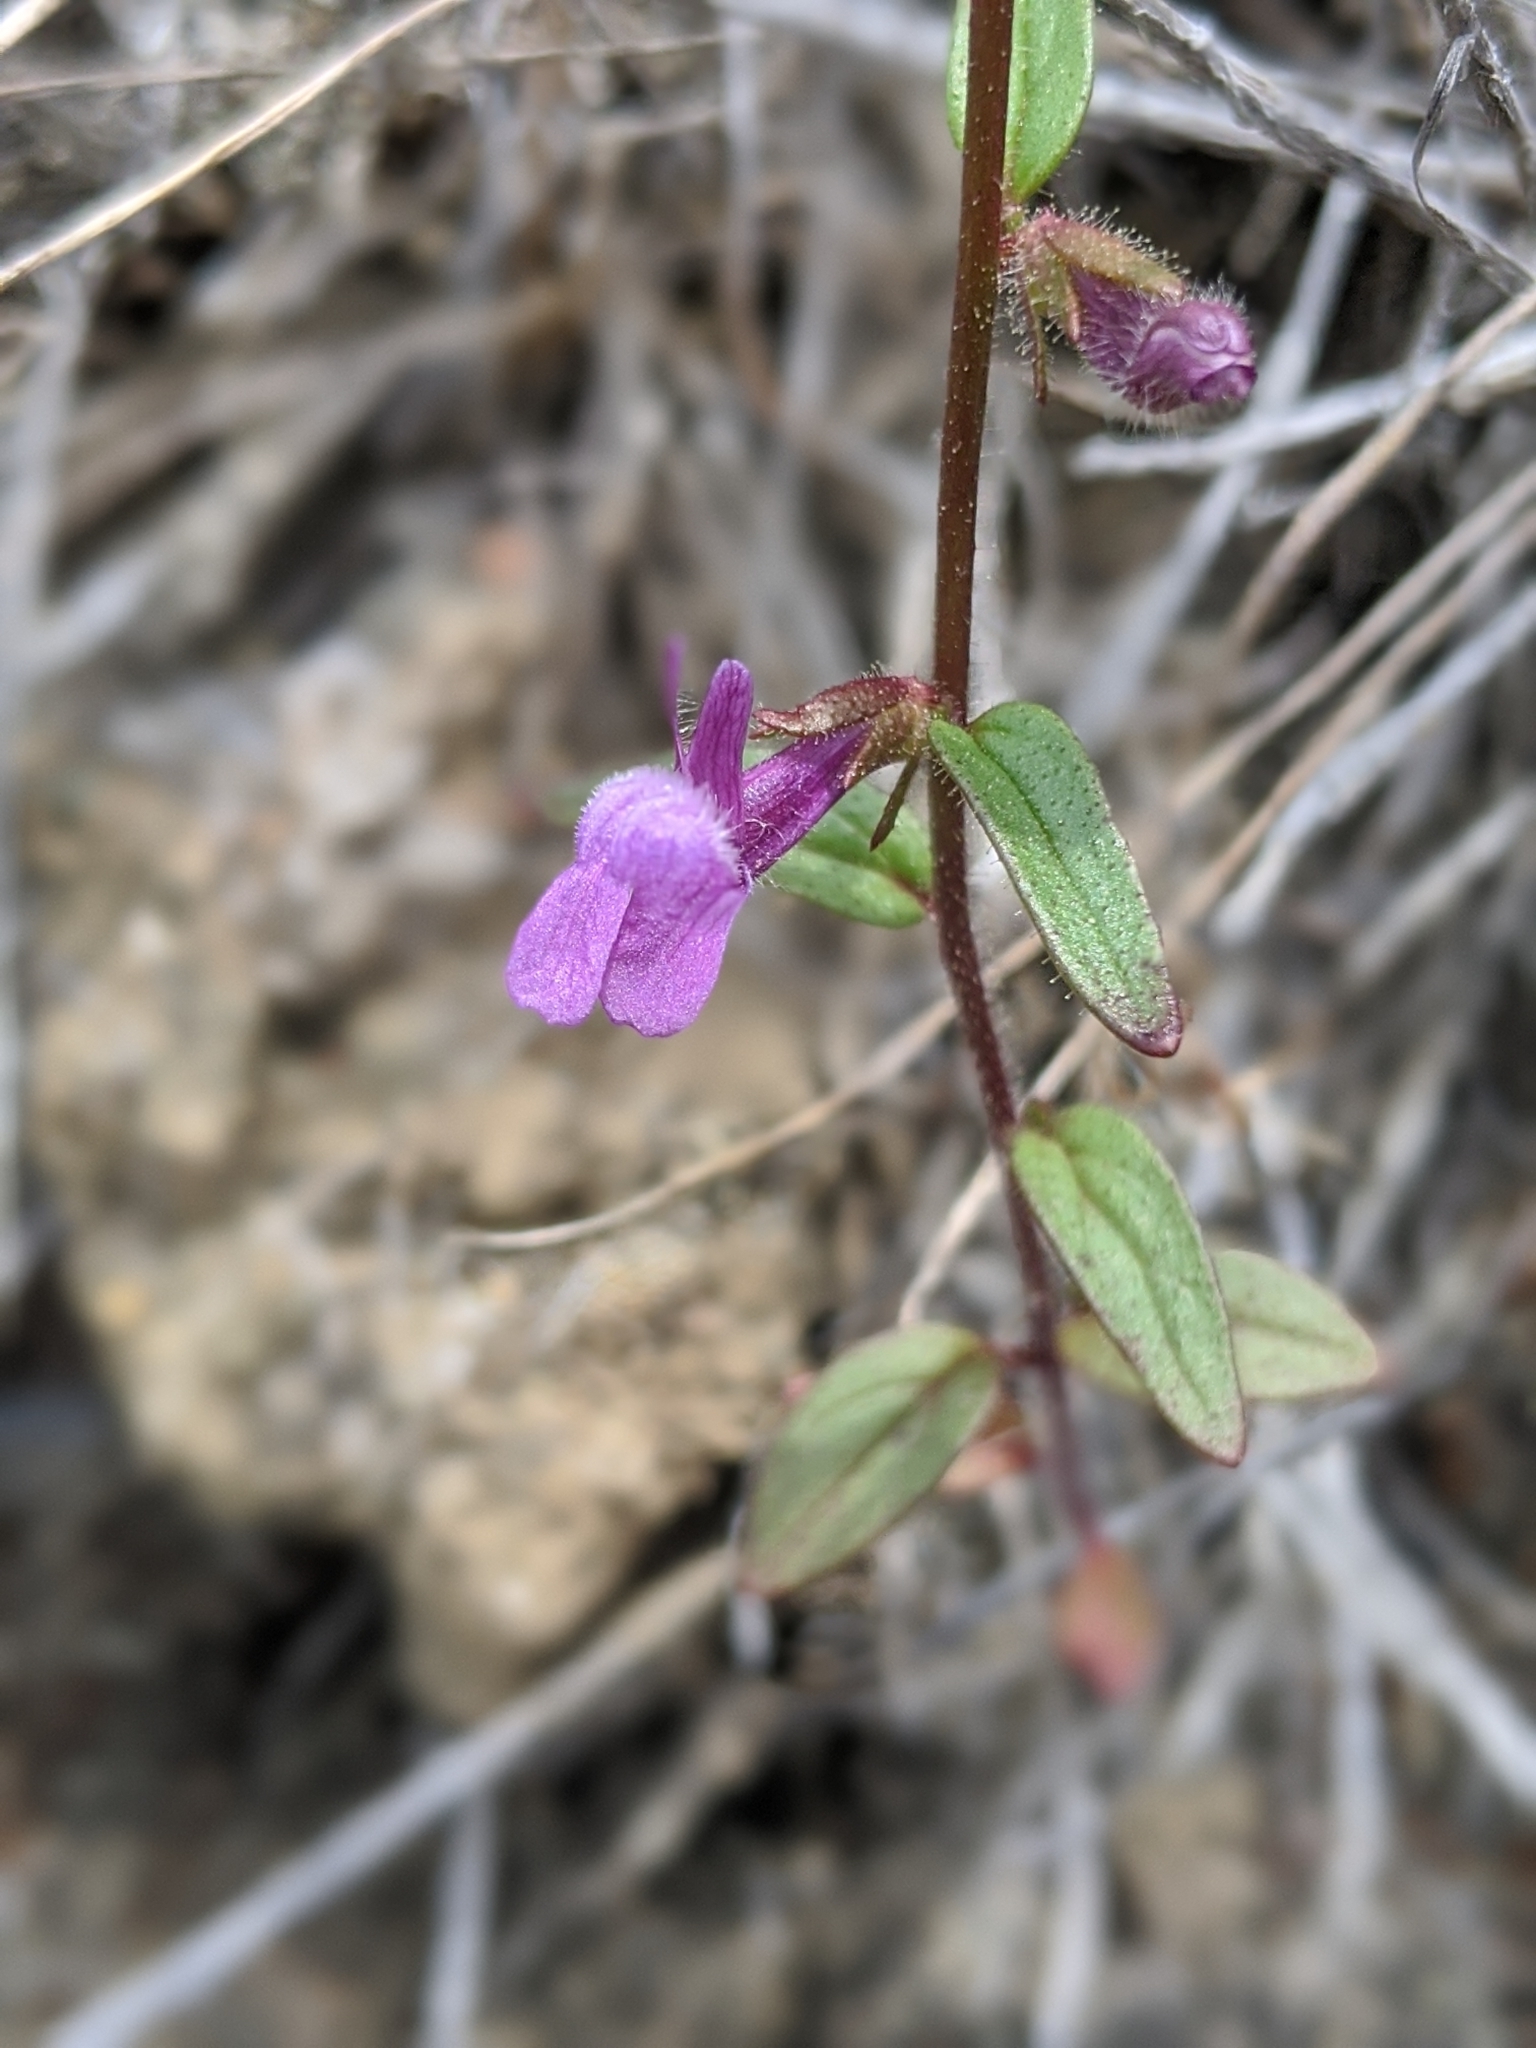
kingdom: Plantae
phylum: Tracheophyta
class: Magnoliopsida
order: Lamiales
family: Plantaginaceae
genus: Sairocarpus
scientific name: Sairocarpus vexillocalyculatus
